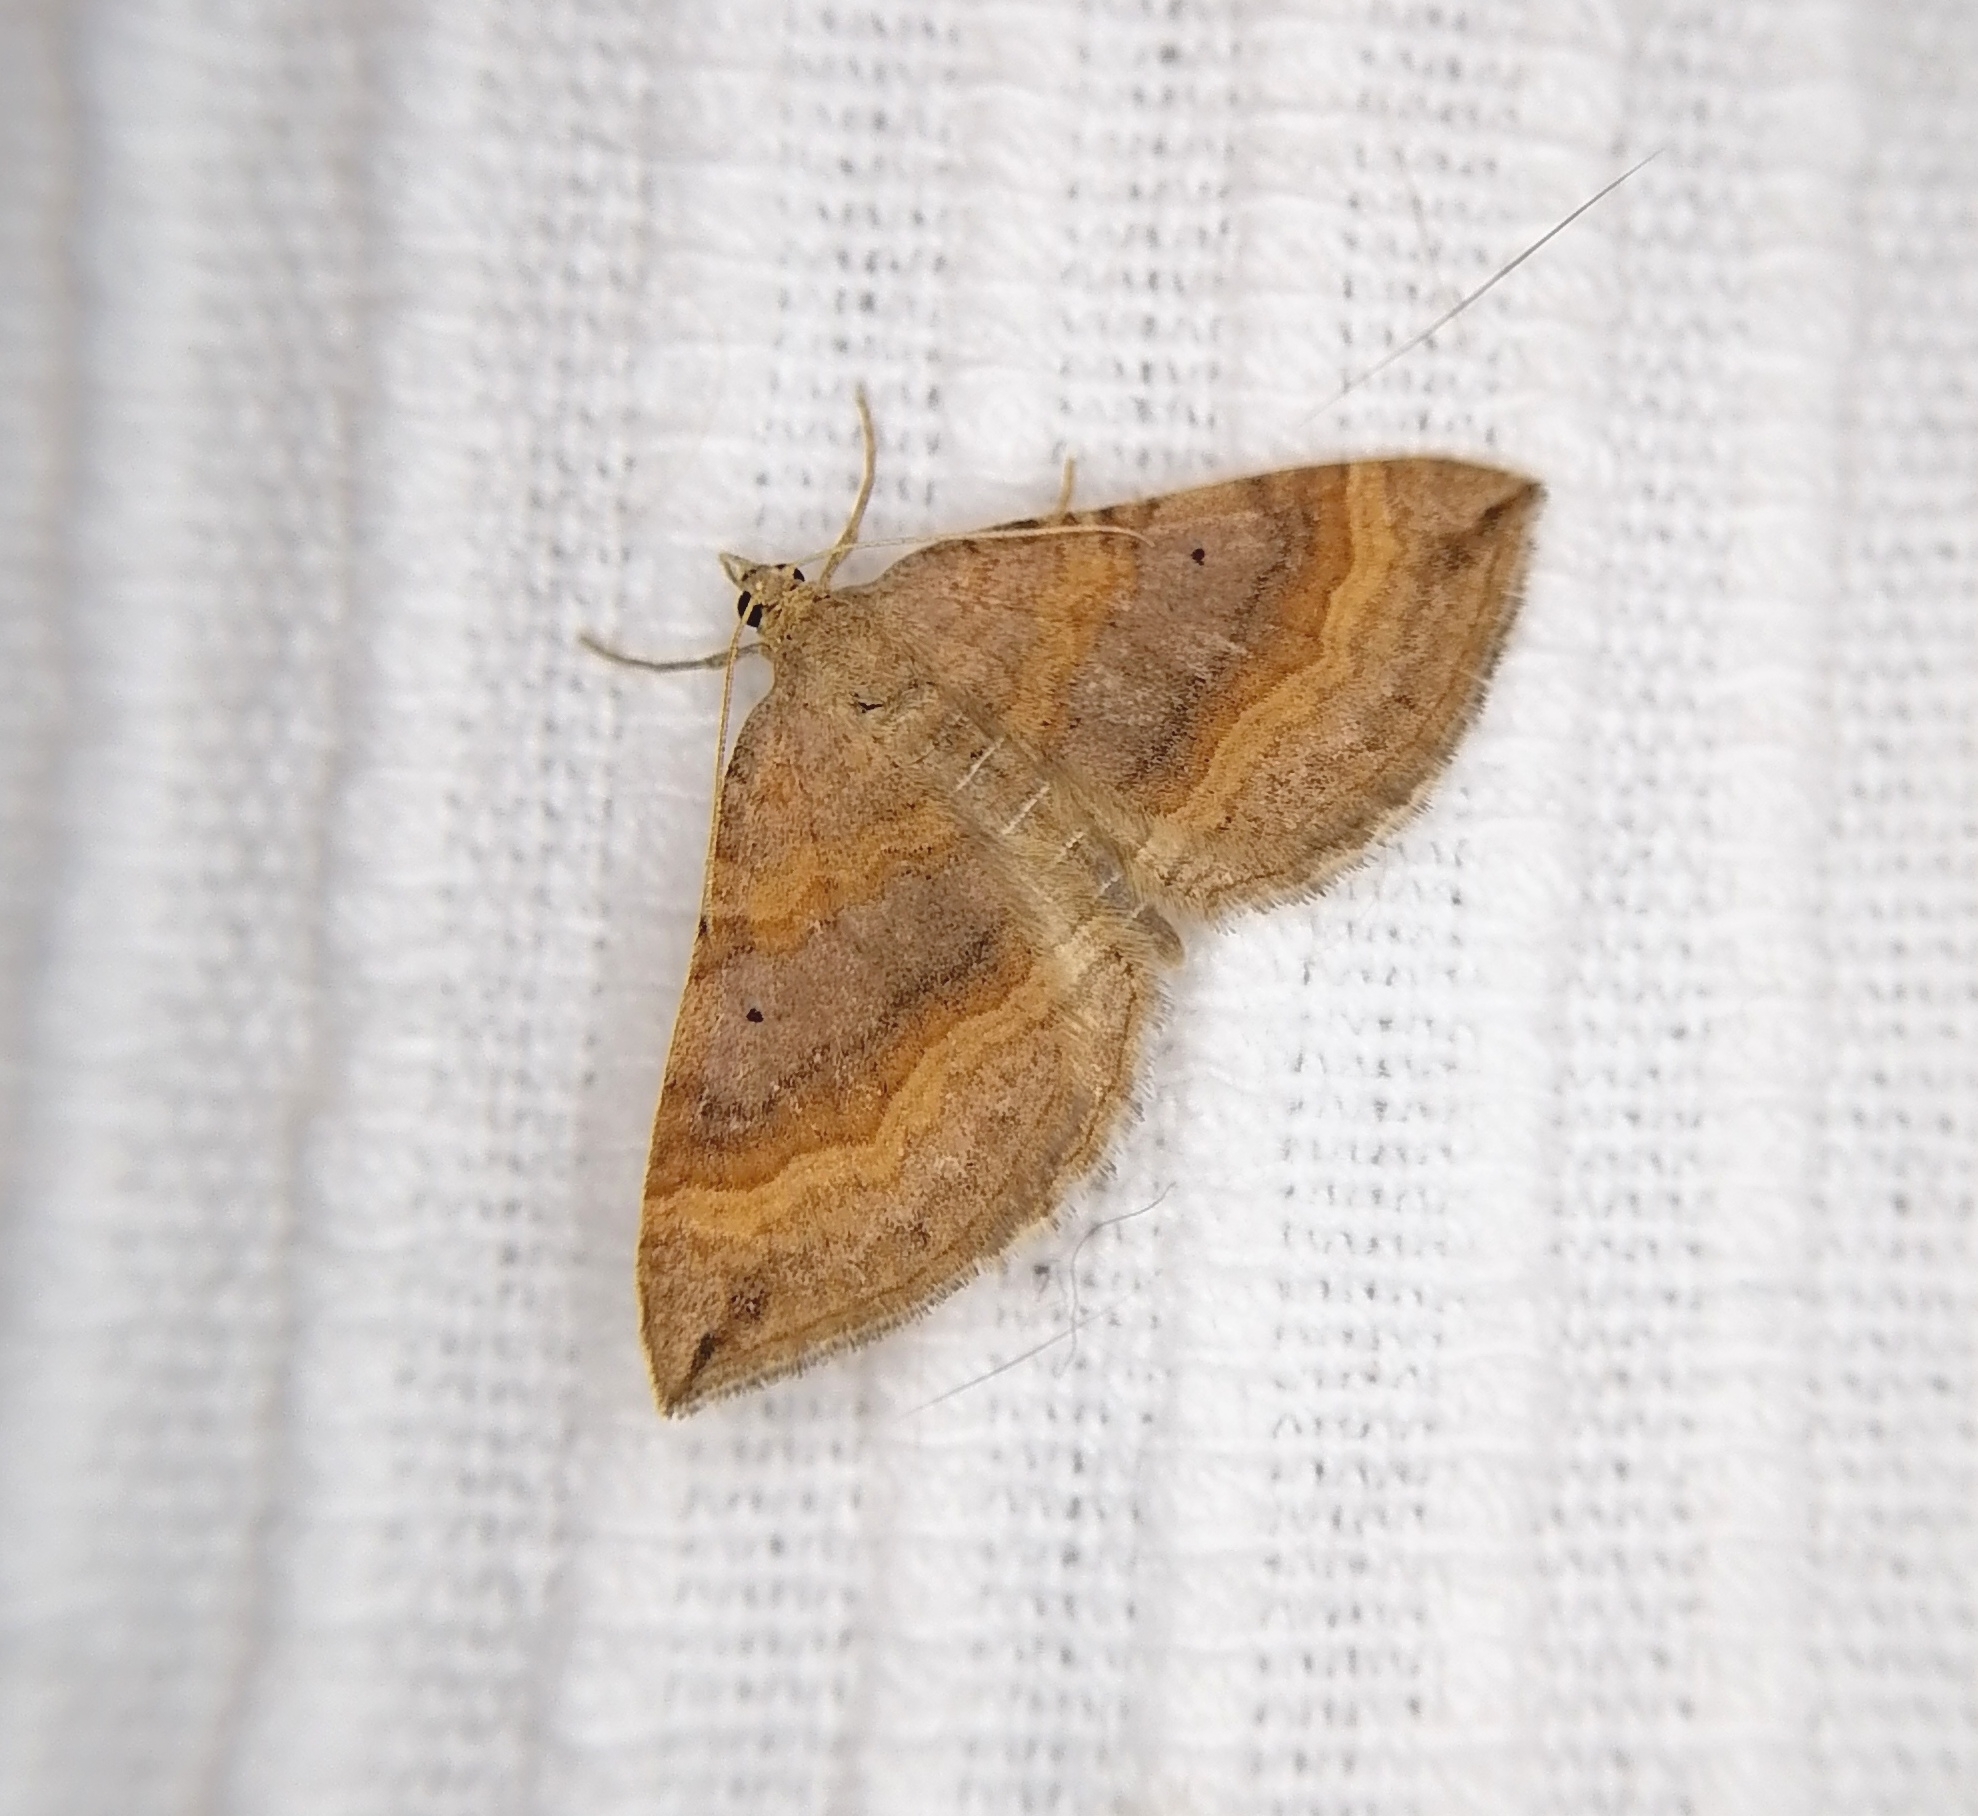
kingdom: Animalia
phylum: Arthropoda
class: Insecta
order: Lepidoptera
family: Geometridae
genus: Scotopteryx
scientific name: Scotopteryx chenopodiata
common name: Shaded broad-bar
